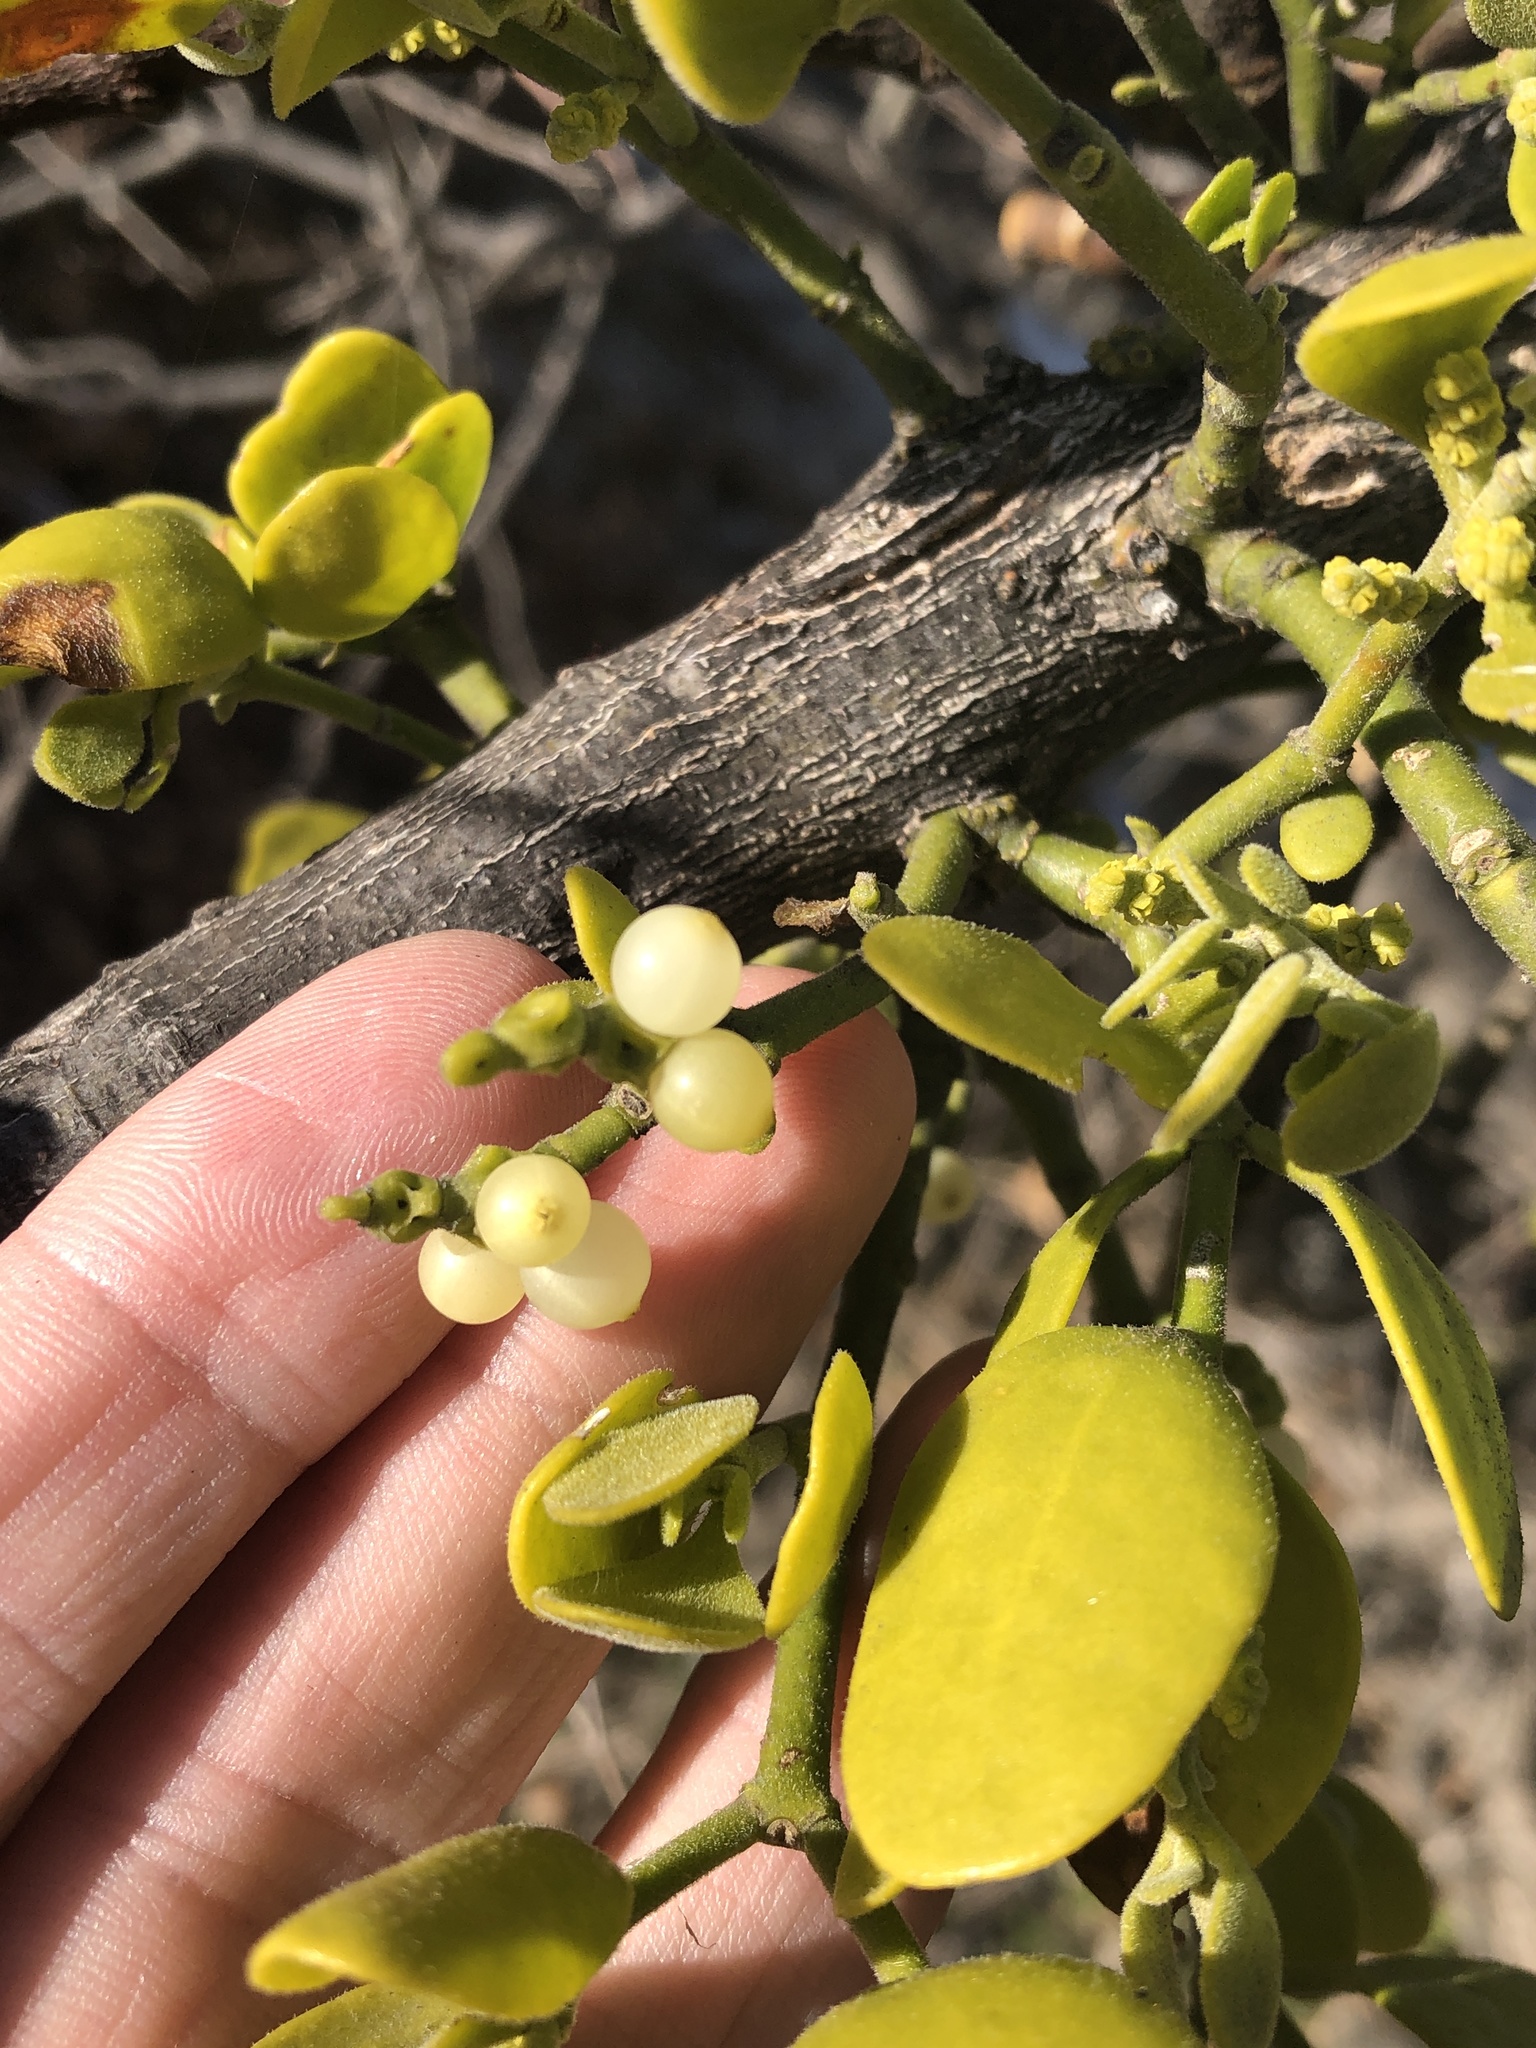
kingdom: Plantae
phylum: Tracheophyta
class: Magnoliopsida
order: Santalales
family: Viscaceae
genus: Phoradendron
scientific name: Phoradendron leucarpum
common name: Pacific mistletoe
